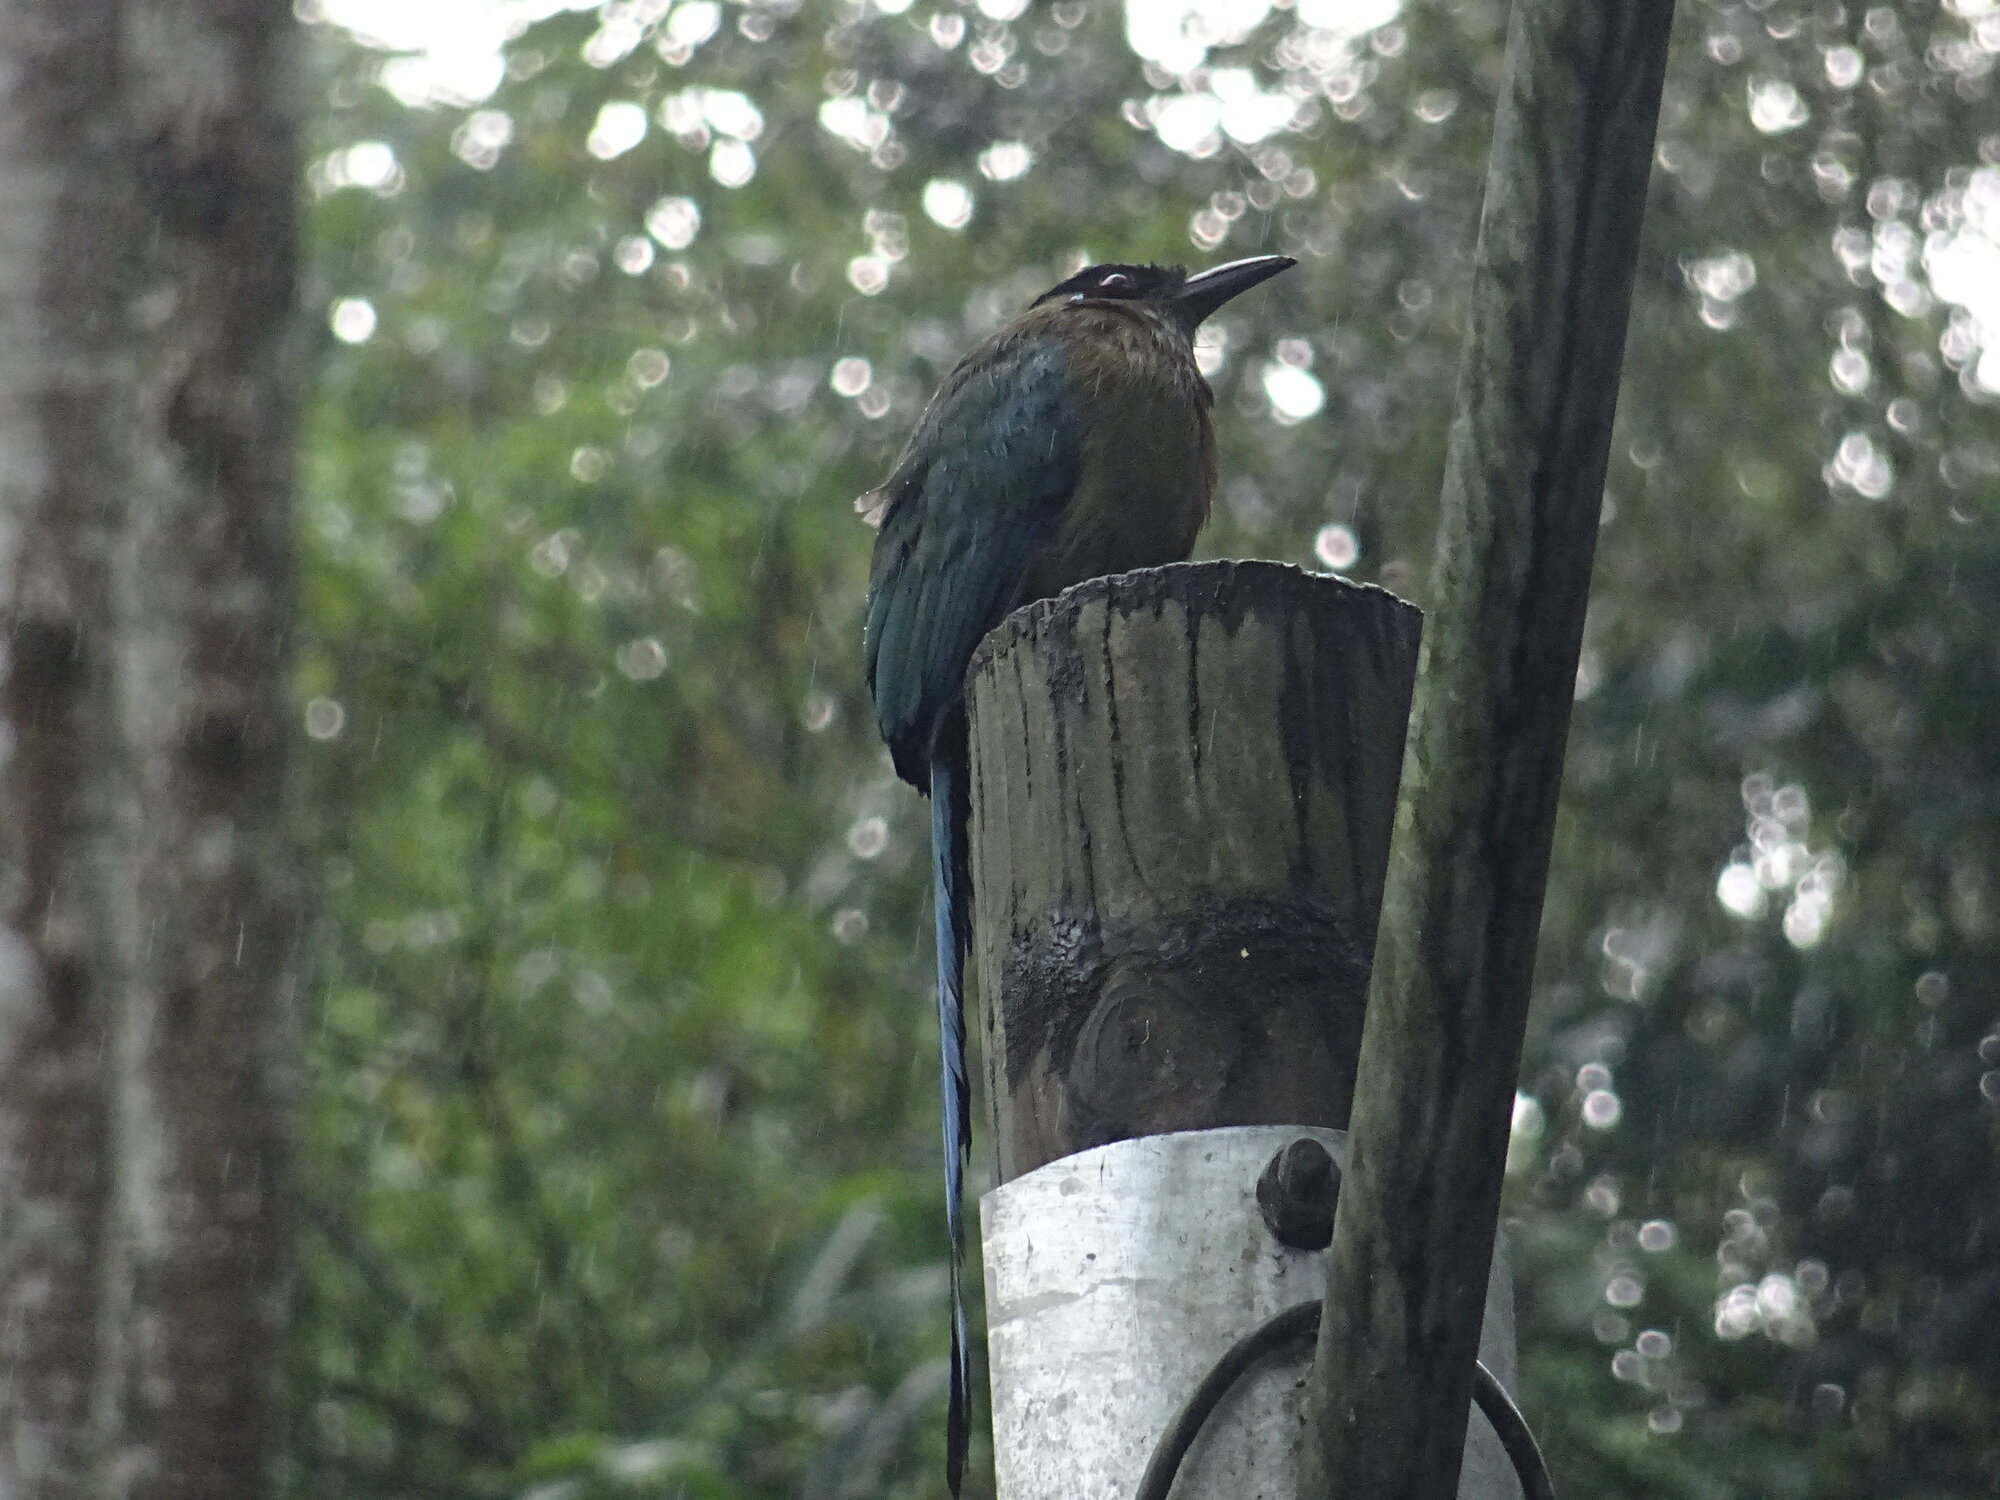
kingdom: Animalia
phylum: Chordata
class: Aves
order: Coraciiformes
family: Momotidae
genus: Momotus
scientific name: Momotus aequatorialis
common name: Andean motmot
